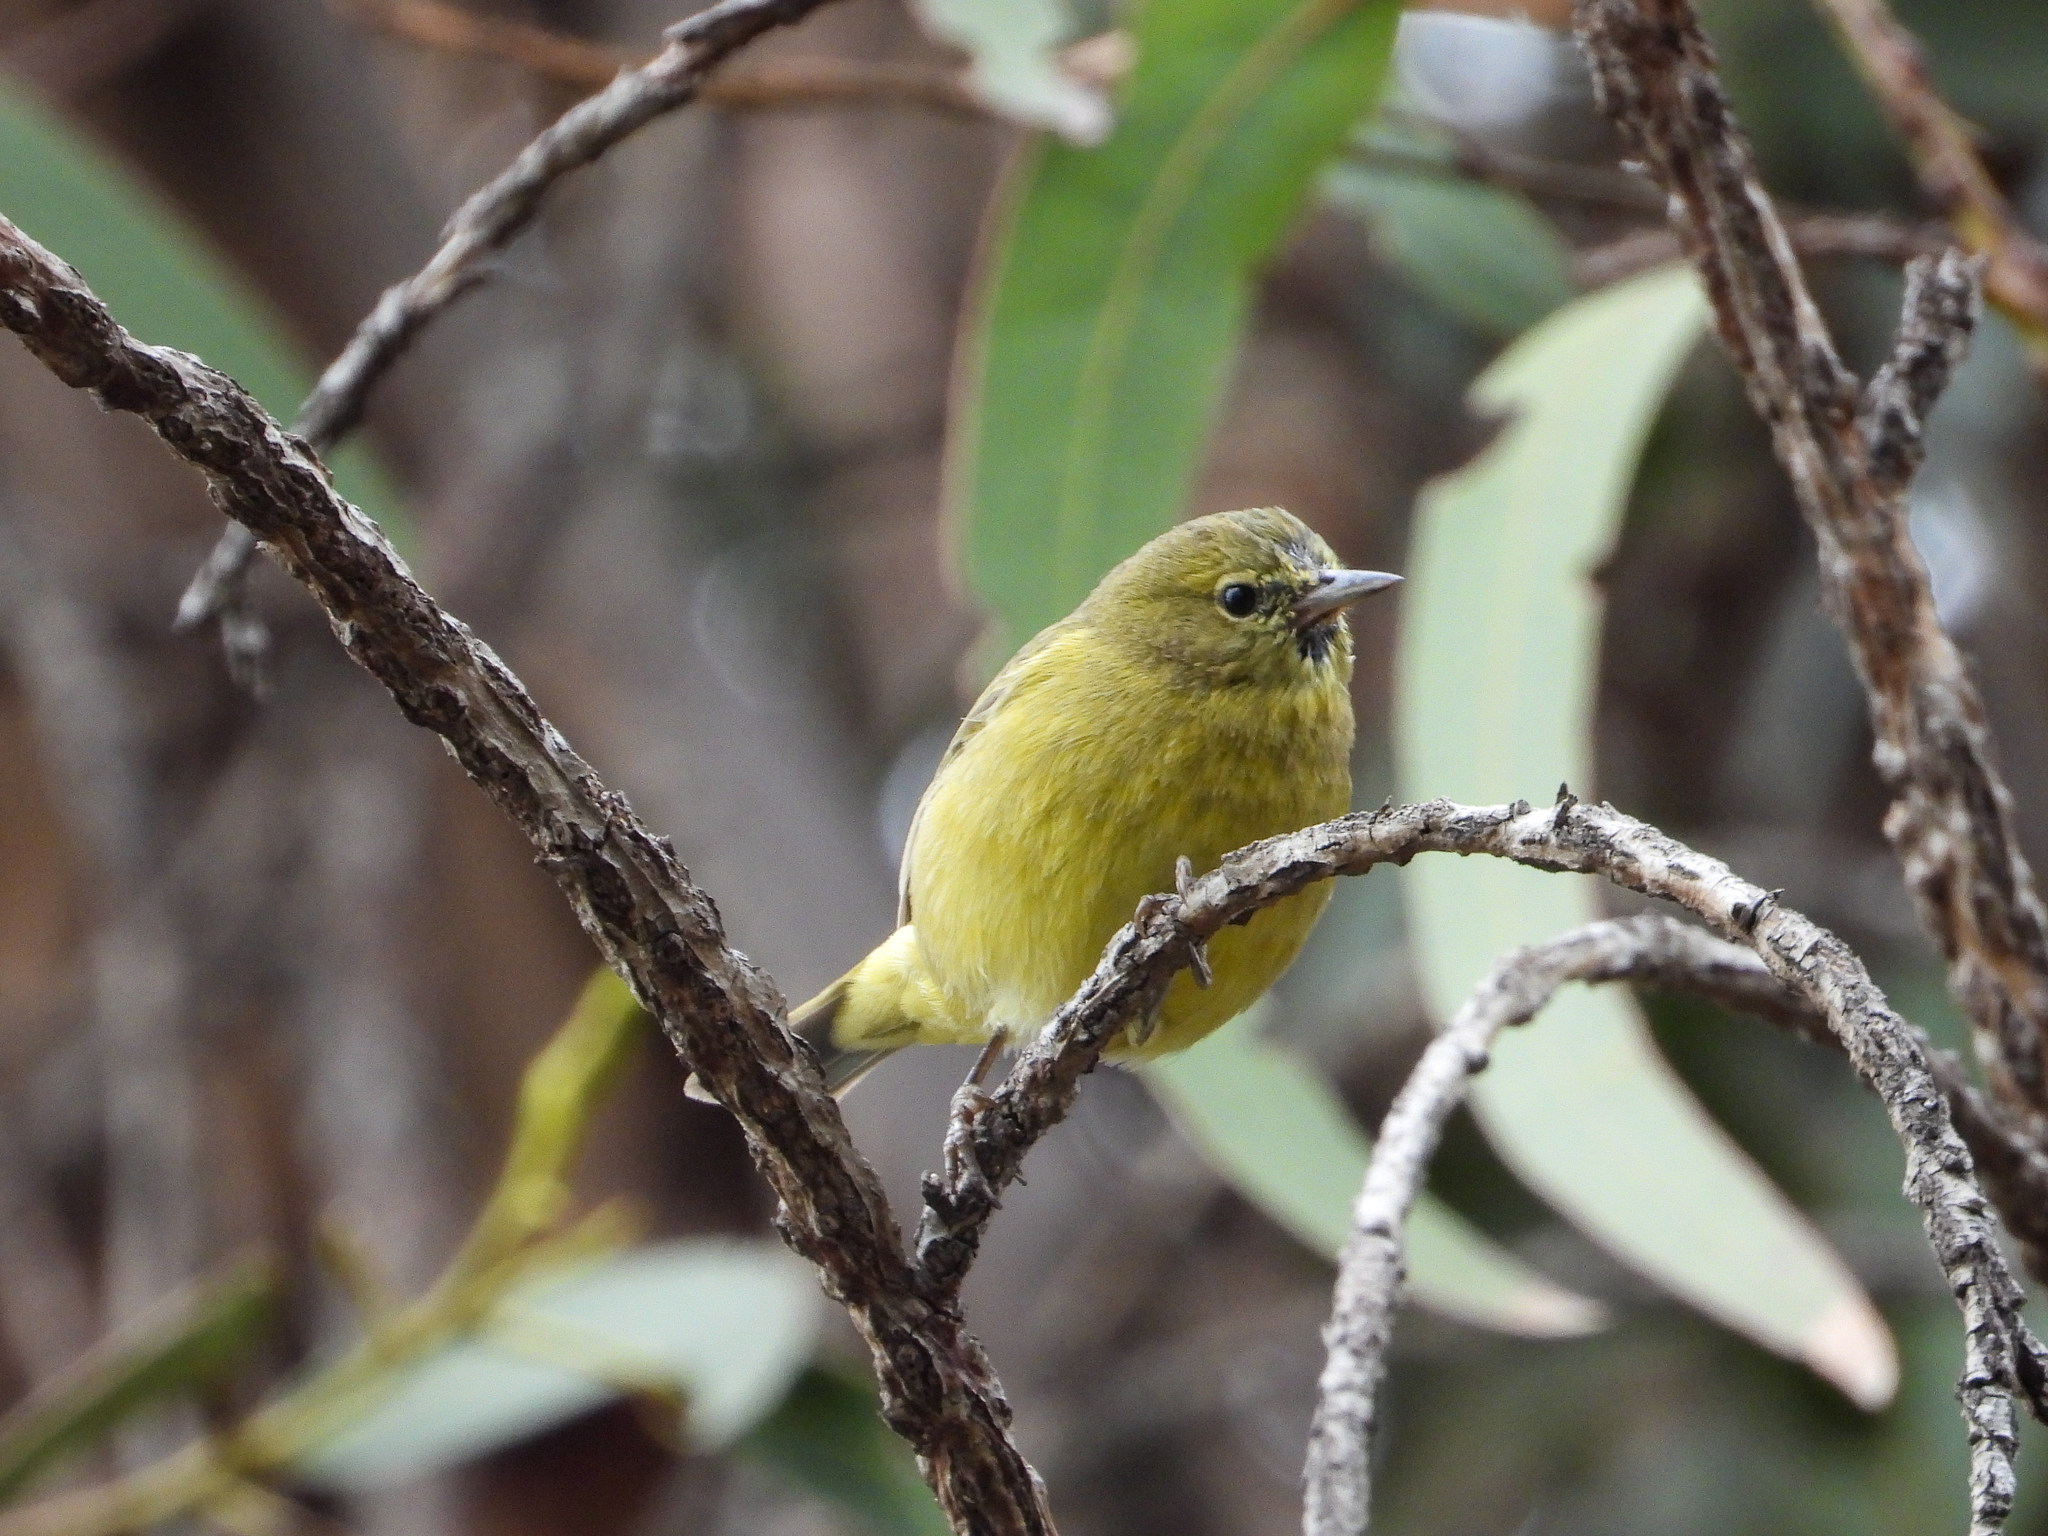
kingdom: Animalia
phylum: Chordata
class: Aves
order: Passeriformes
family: Parulidae
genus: Leiothlypis
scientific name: Leiothlypis celata
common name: Orange-crowned warbler
